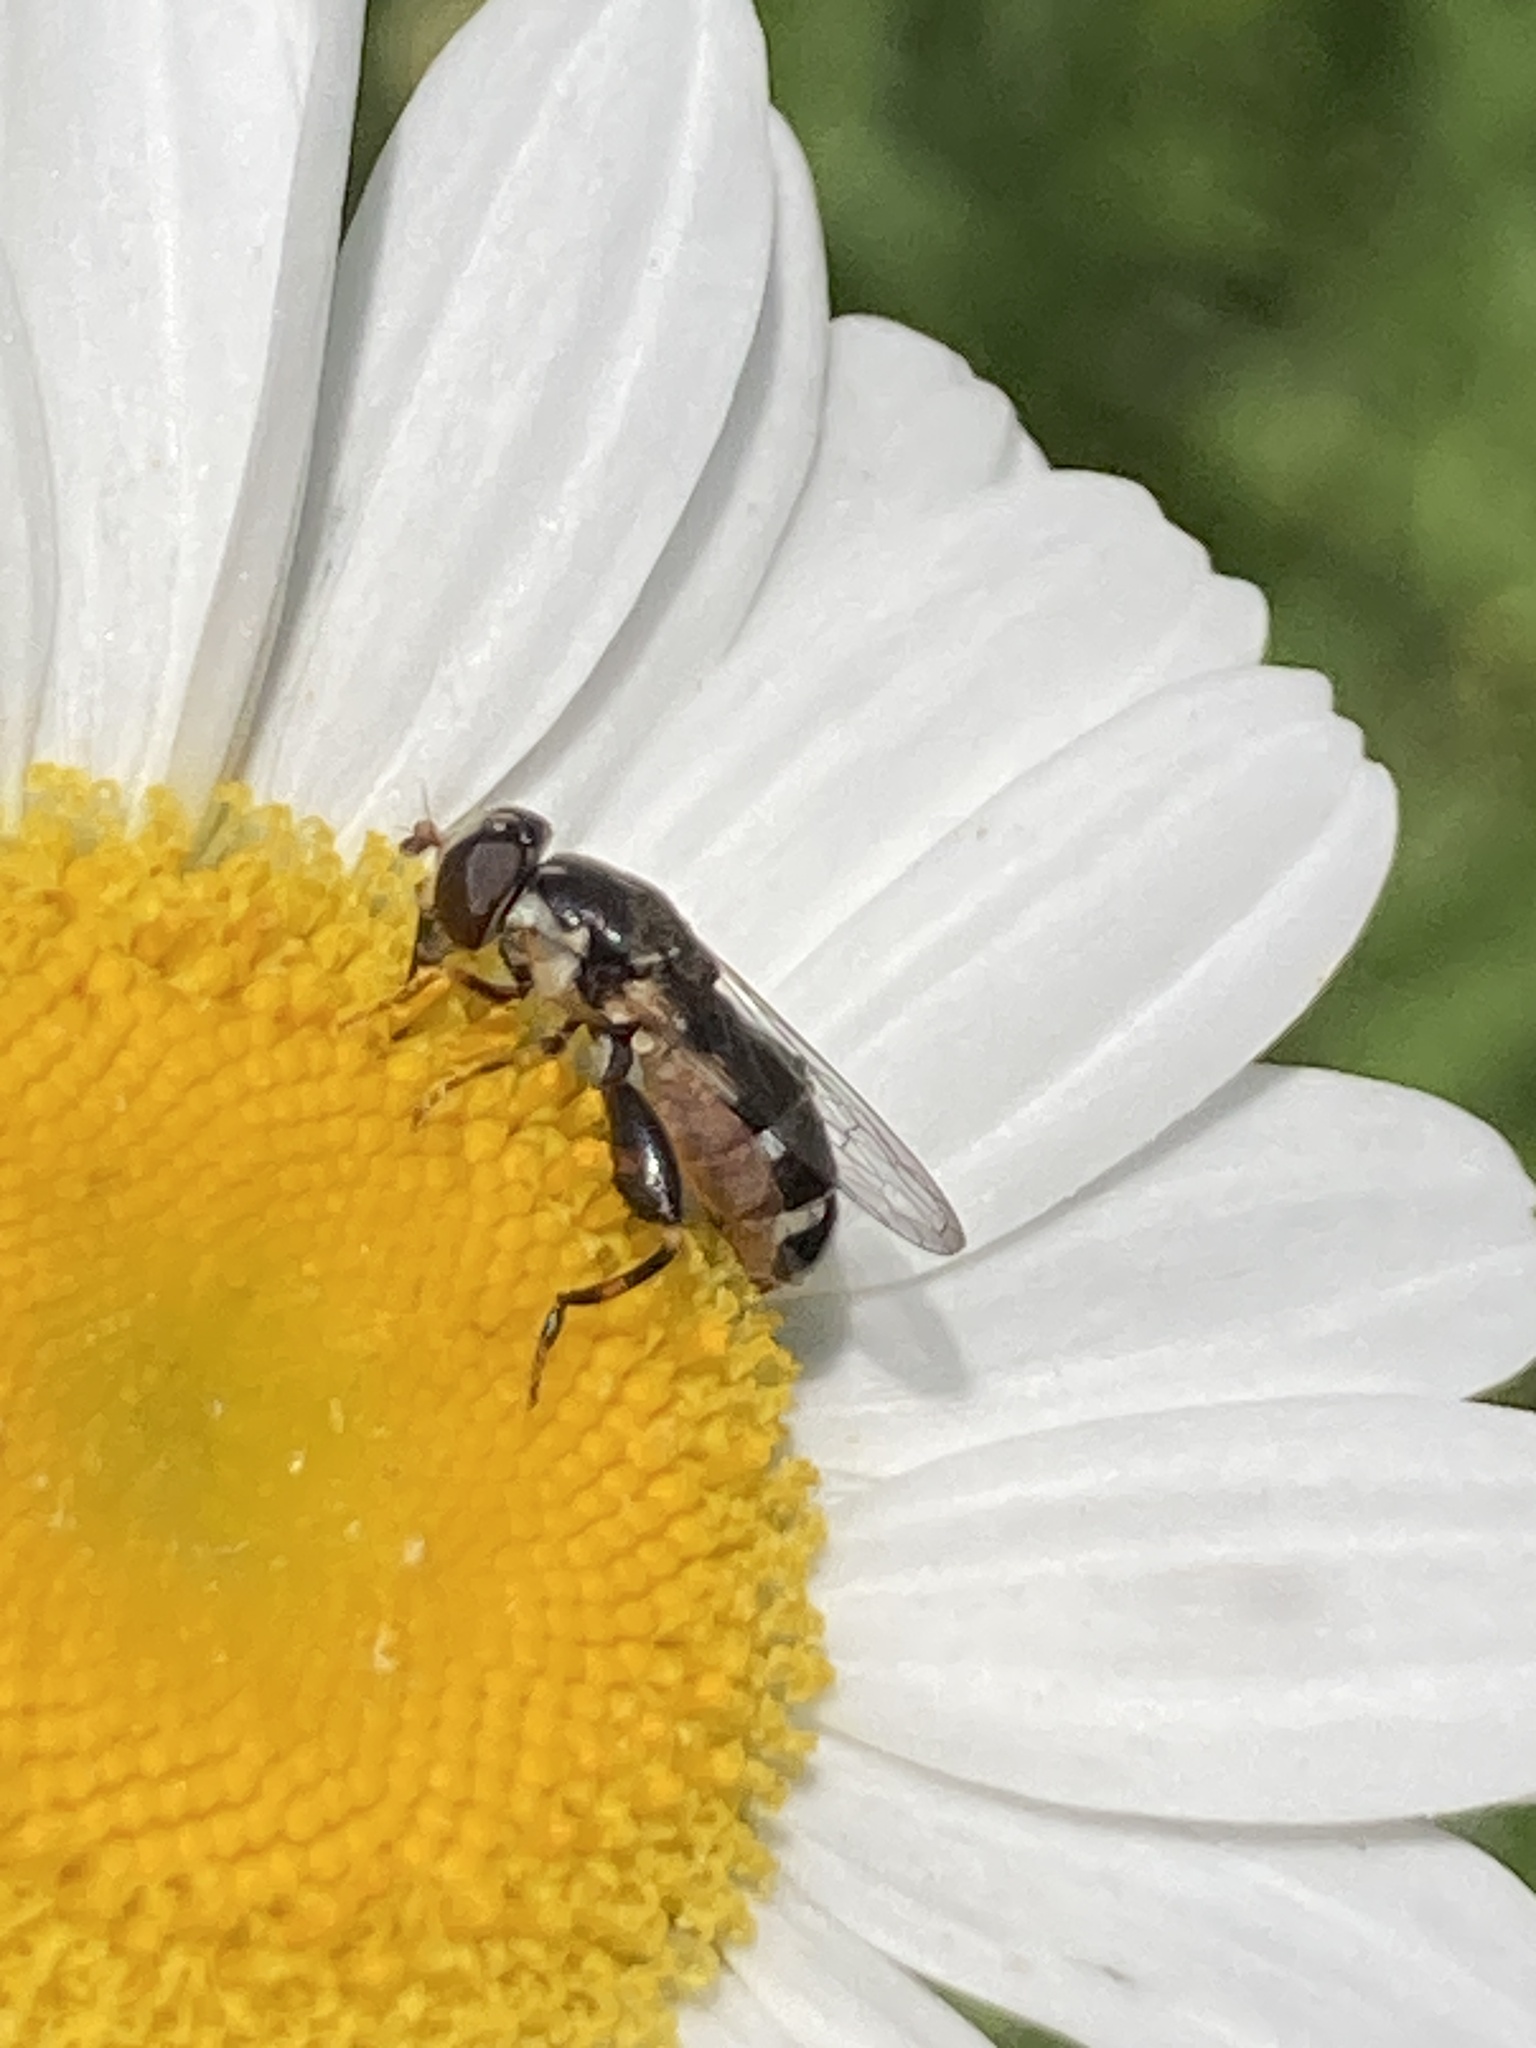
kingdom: Animalia
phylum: Arthropoda
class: Insecta
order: Diptera
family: Syrphidae
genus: Syritta
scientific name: Syritta pipiens
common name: Hover fly
